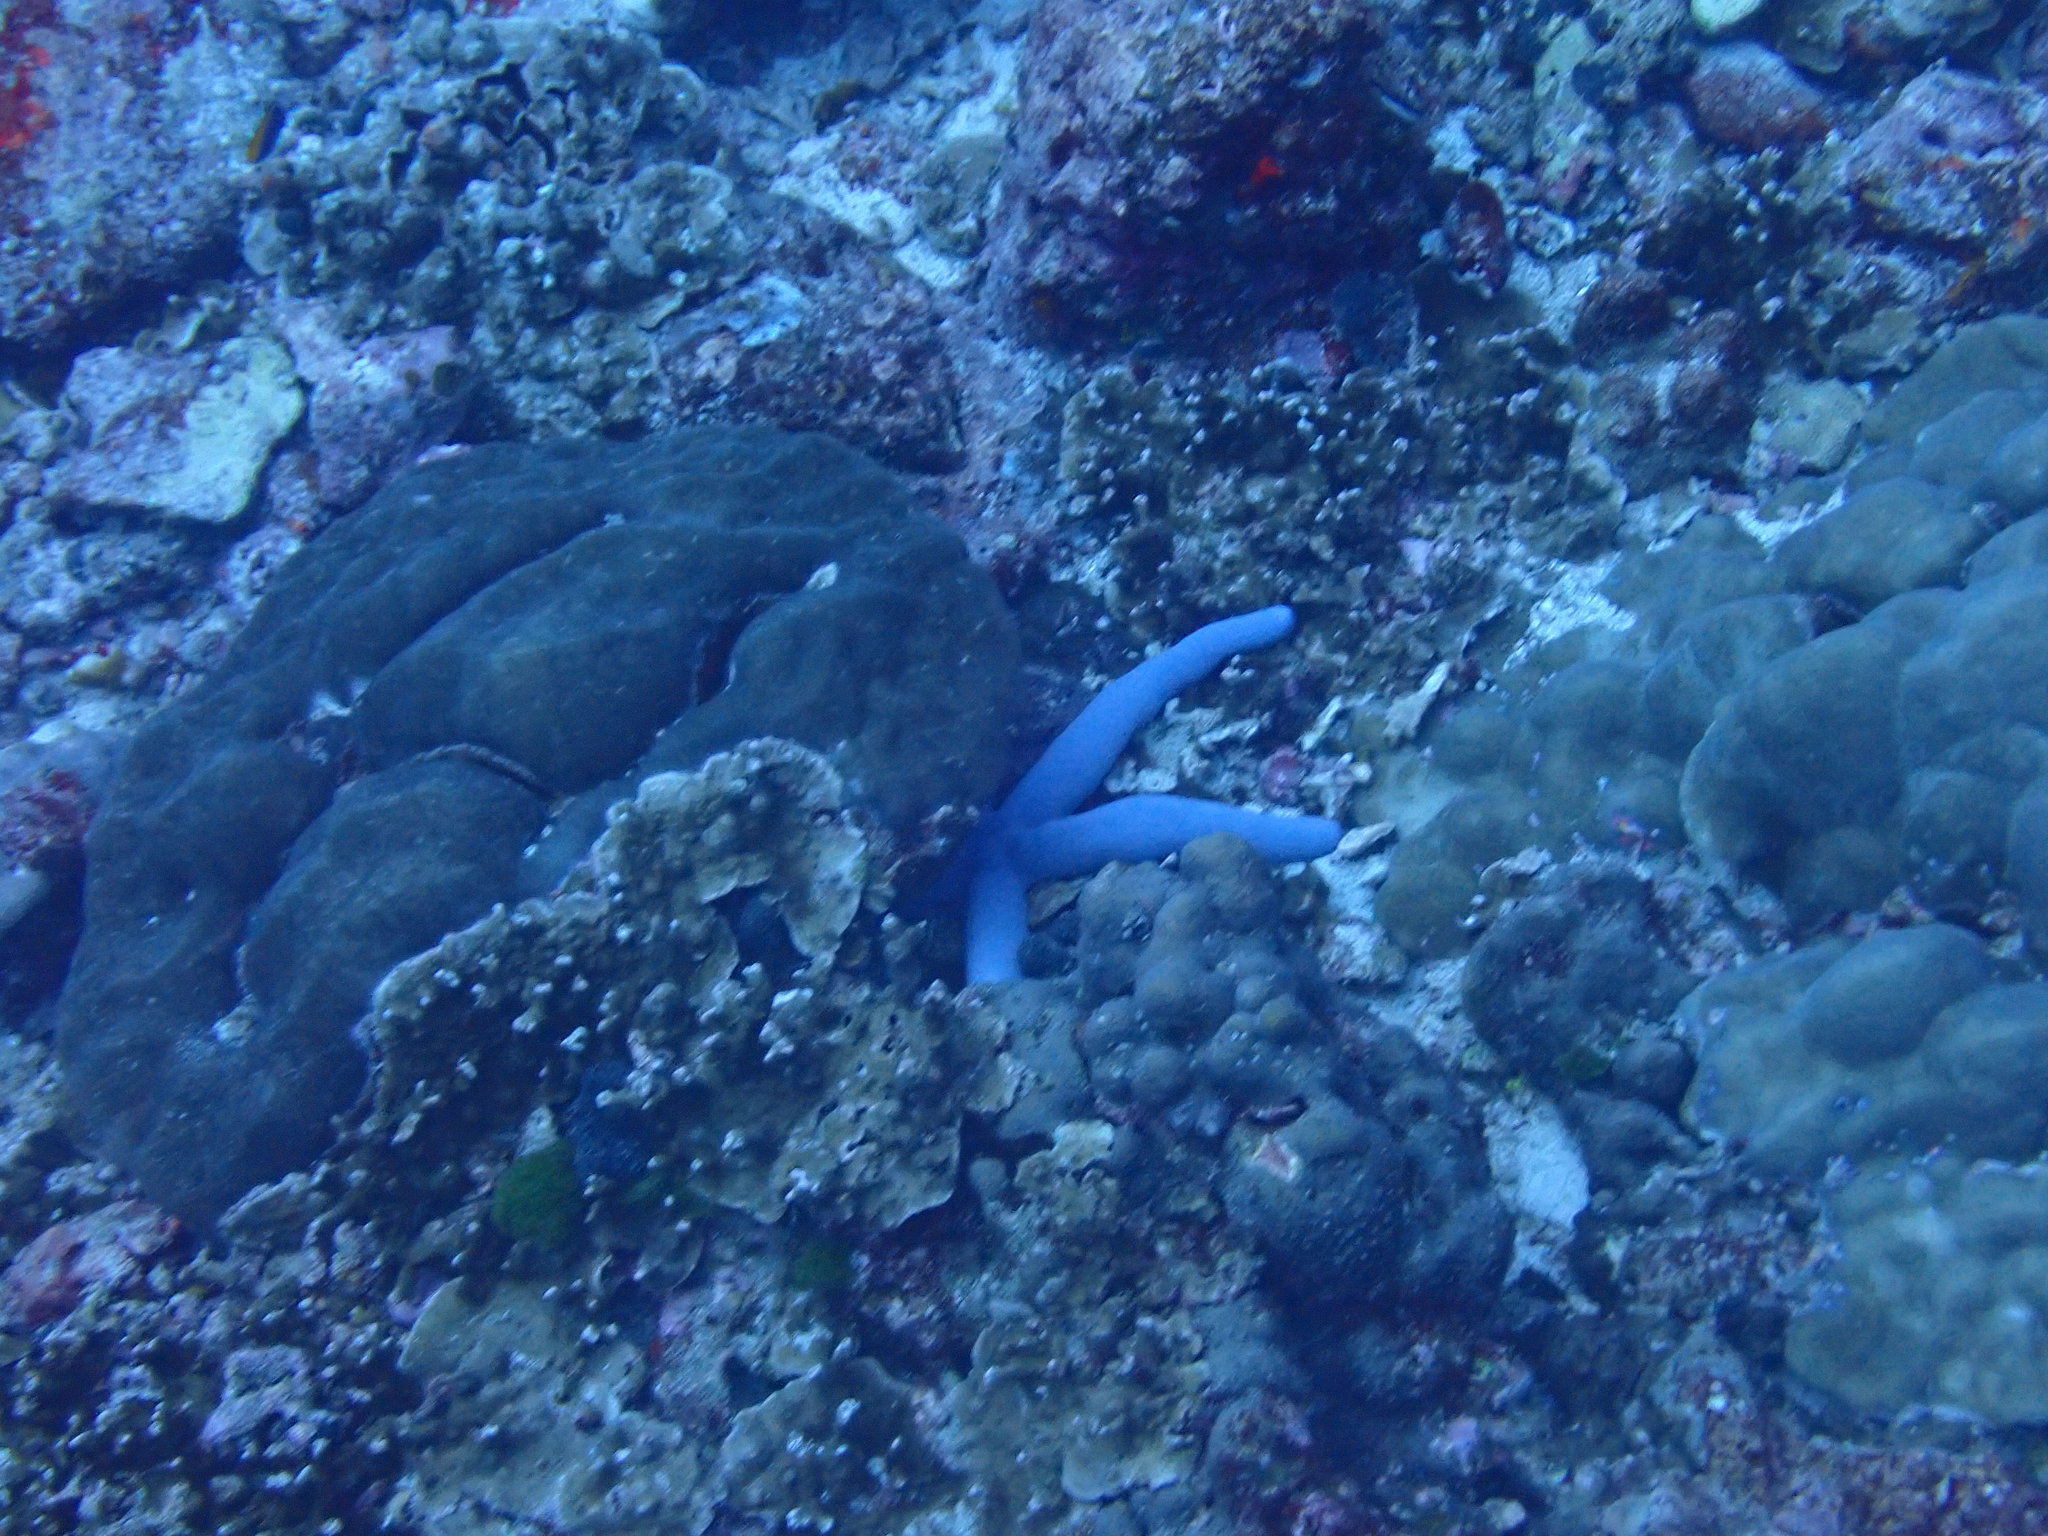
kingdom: Animalia
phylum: Echinodermata
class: Asteroidea
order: Valvatida
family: Ophidiasteridae
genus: Linckia
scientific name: Linckia laevigata
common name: Azure sea star
